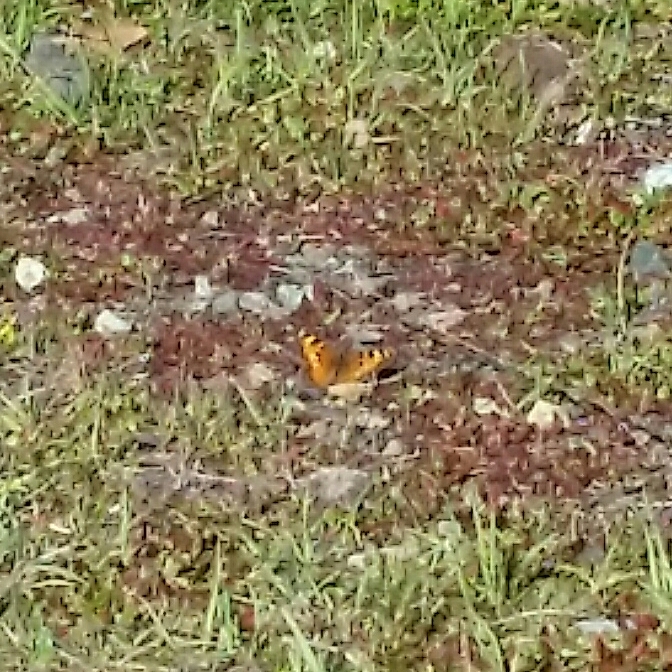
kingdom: Animalia
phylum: Arthropoda
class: Insecta
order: Lepidoptera
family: Nymphalidae
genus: Nymphalis
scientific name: Nymphalis californica
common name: California tortoiseshell
